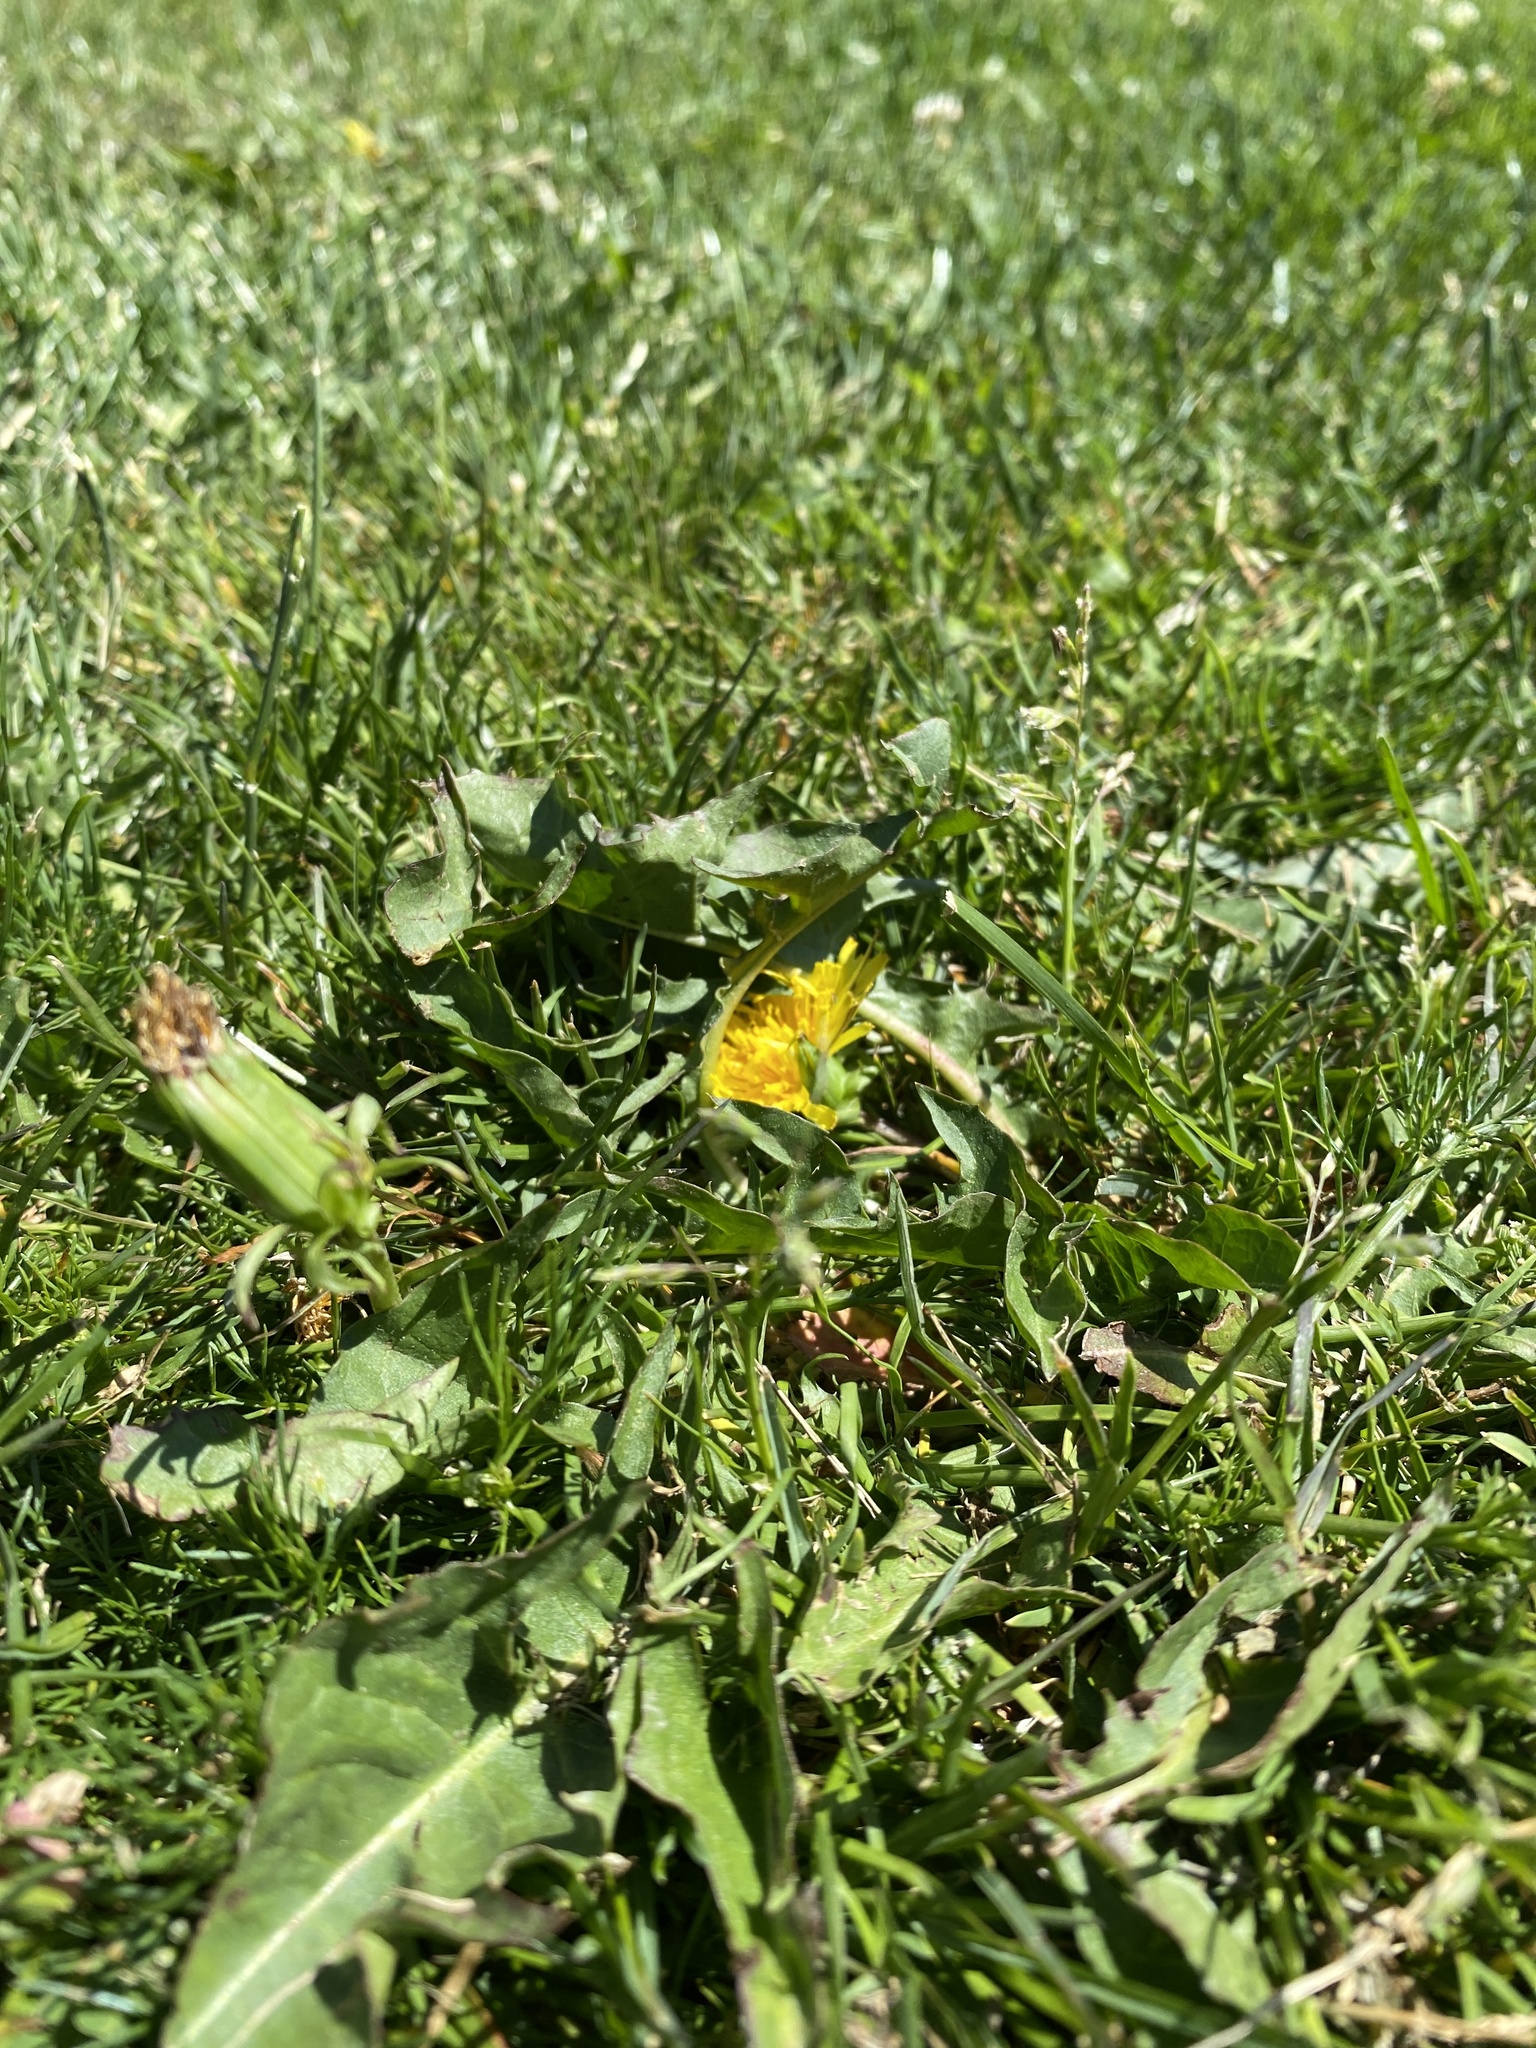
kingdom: Plantae
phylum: Tracheophyta
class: Magnoliopsida
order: Asterales
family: Asteraceae
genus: Taraxacum
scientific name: Taraxacum officinale
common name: Common dandelion
